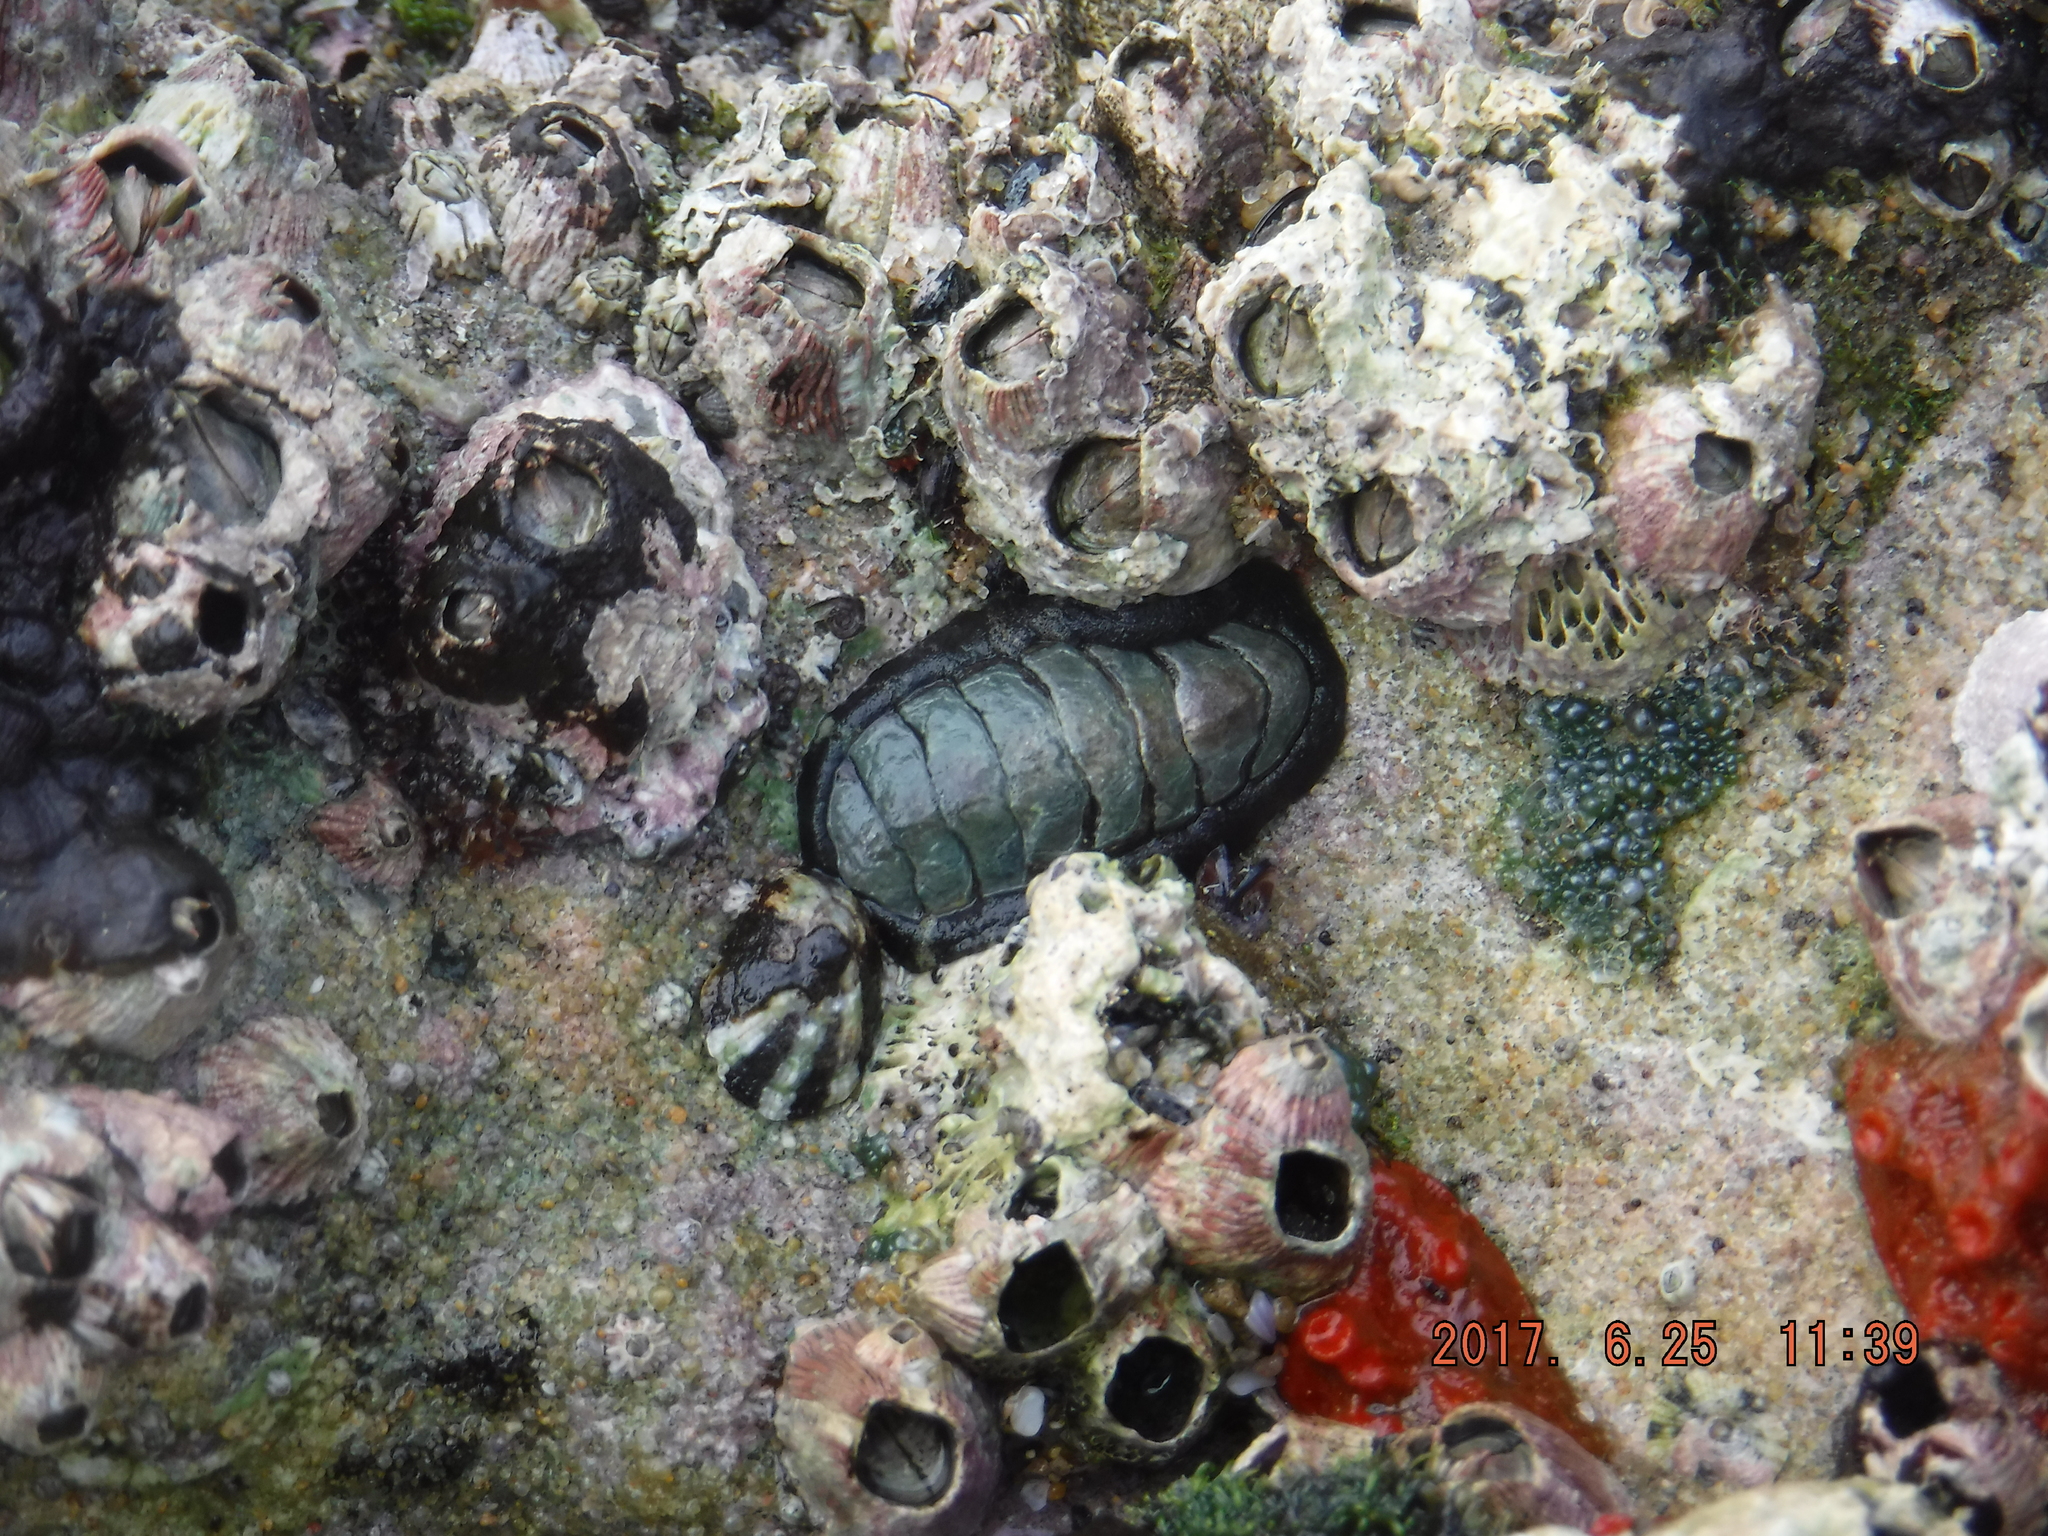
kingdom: Animalia
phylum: Mollusca
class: Polyplacophora
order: Chitonida
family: Chitonidae
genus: Onithochiton
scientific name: Onithochiton literatus
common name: Black chiton
